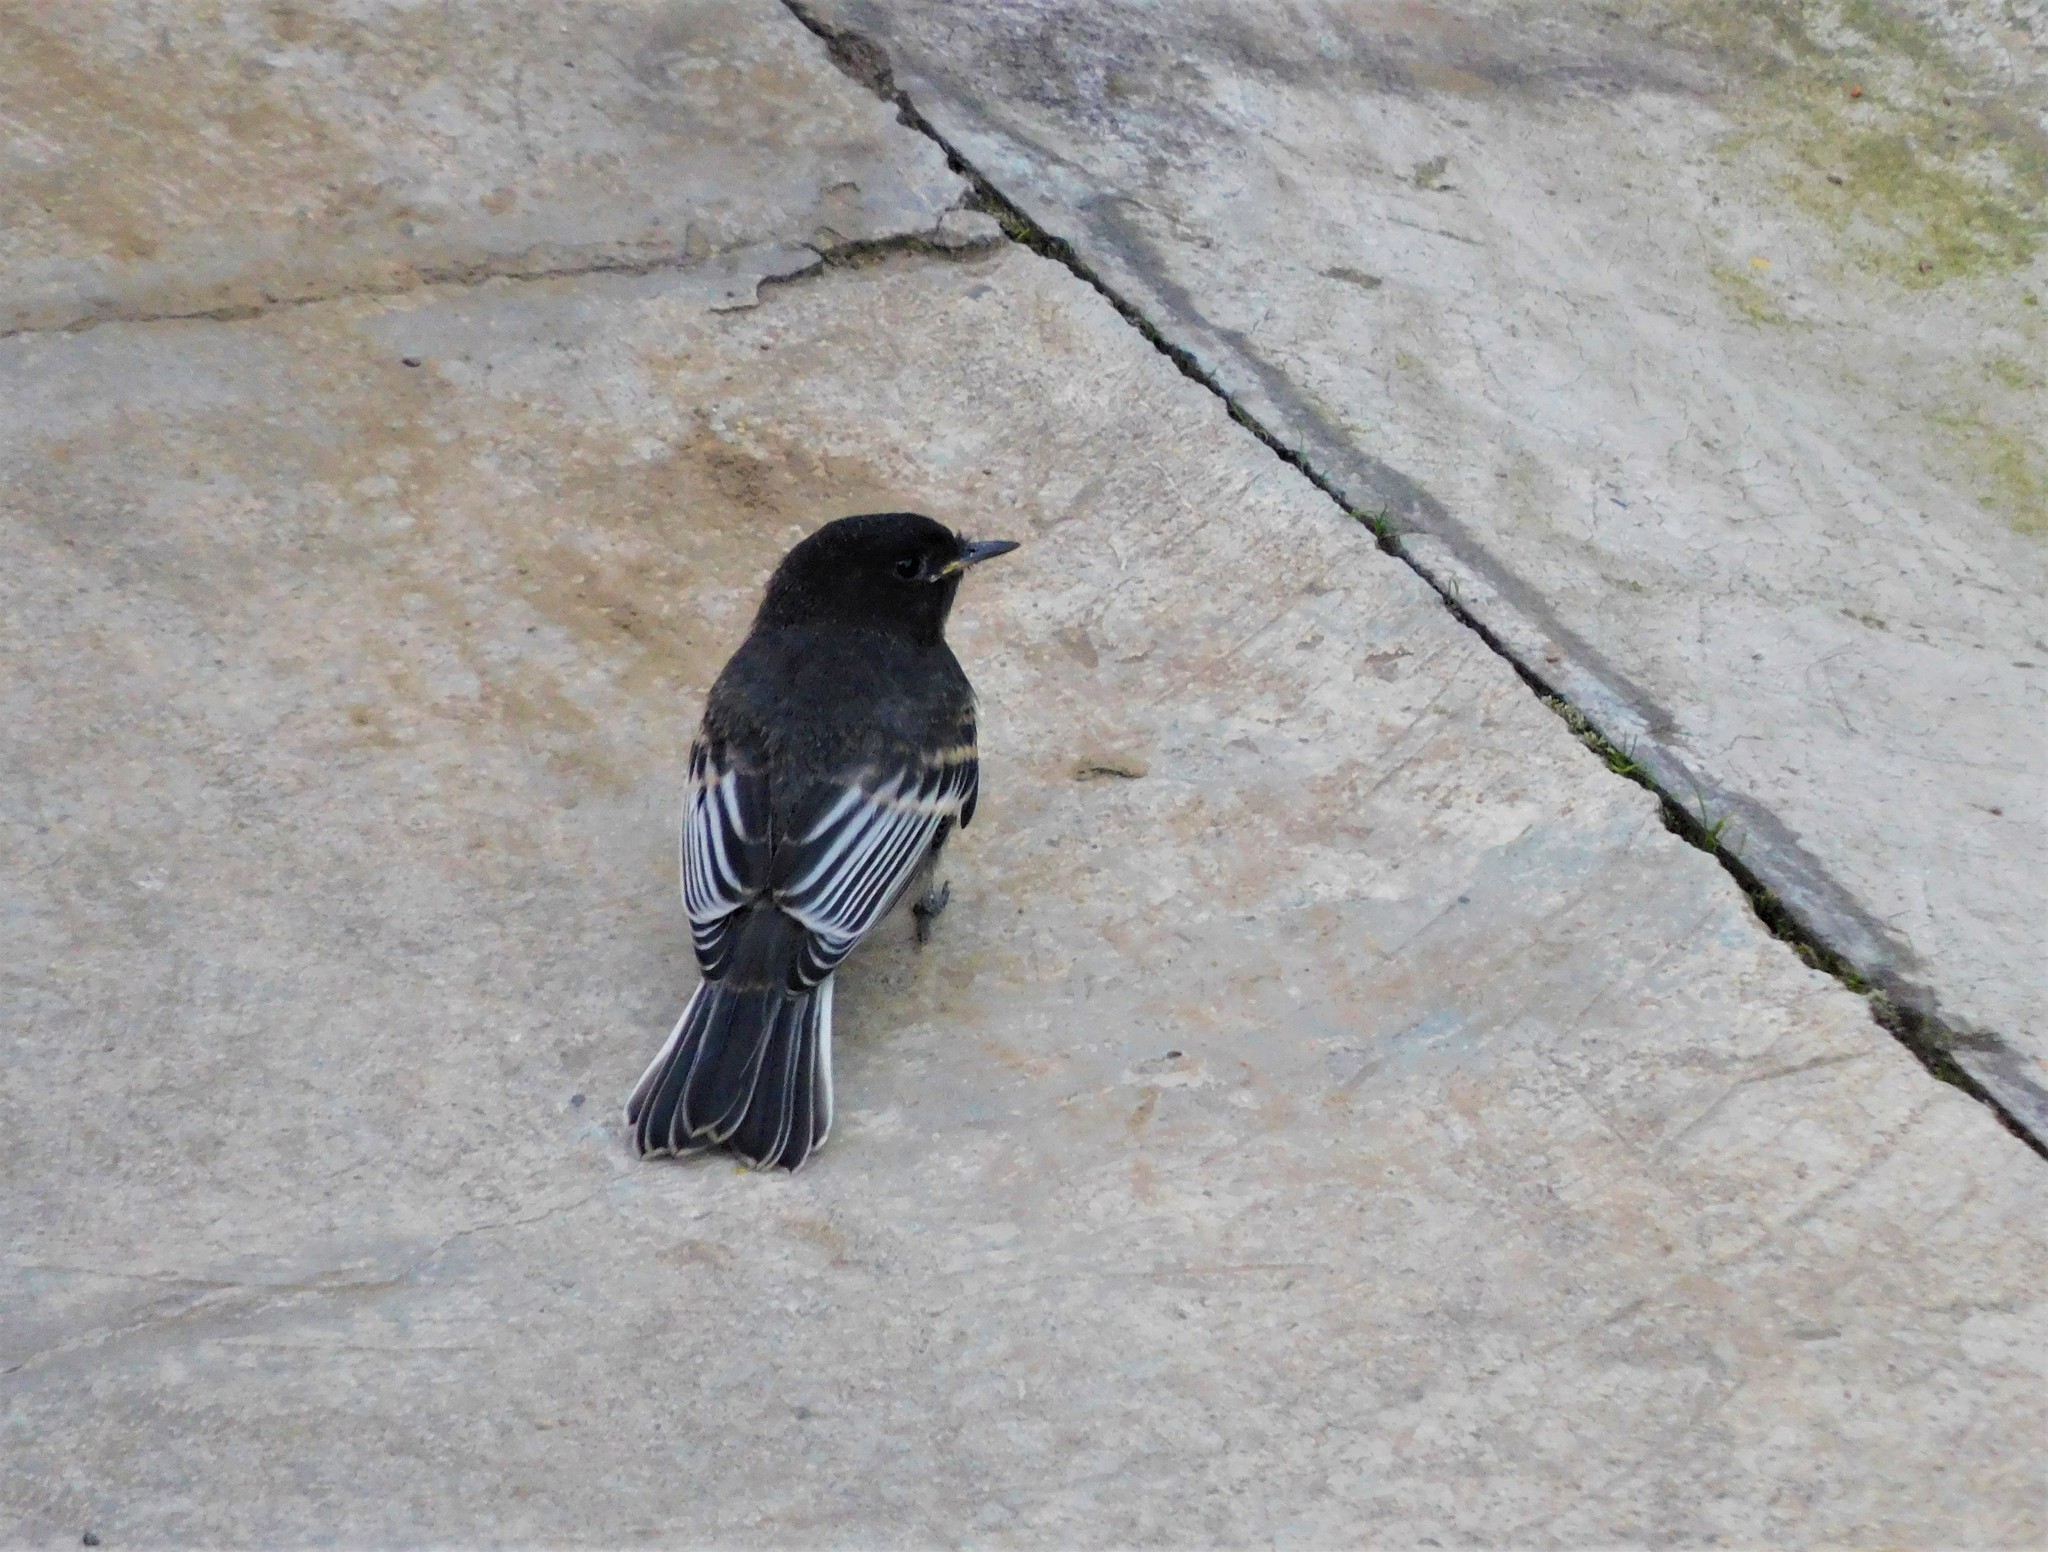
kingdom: Animalia
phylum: Chordata
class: Aves
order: Passeriformes
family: Tyrannidae
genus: Sayornis
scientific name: Sayornis nigricans
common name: Black phoebe
